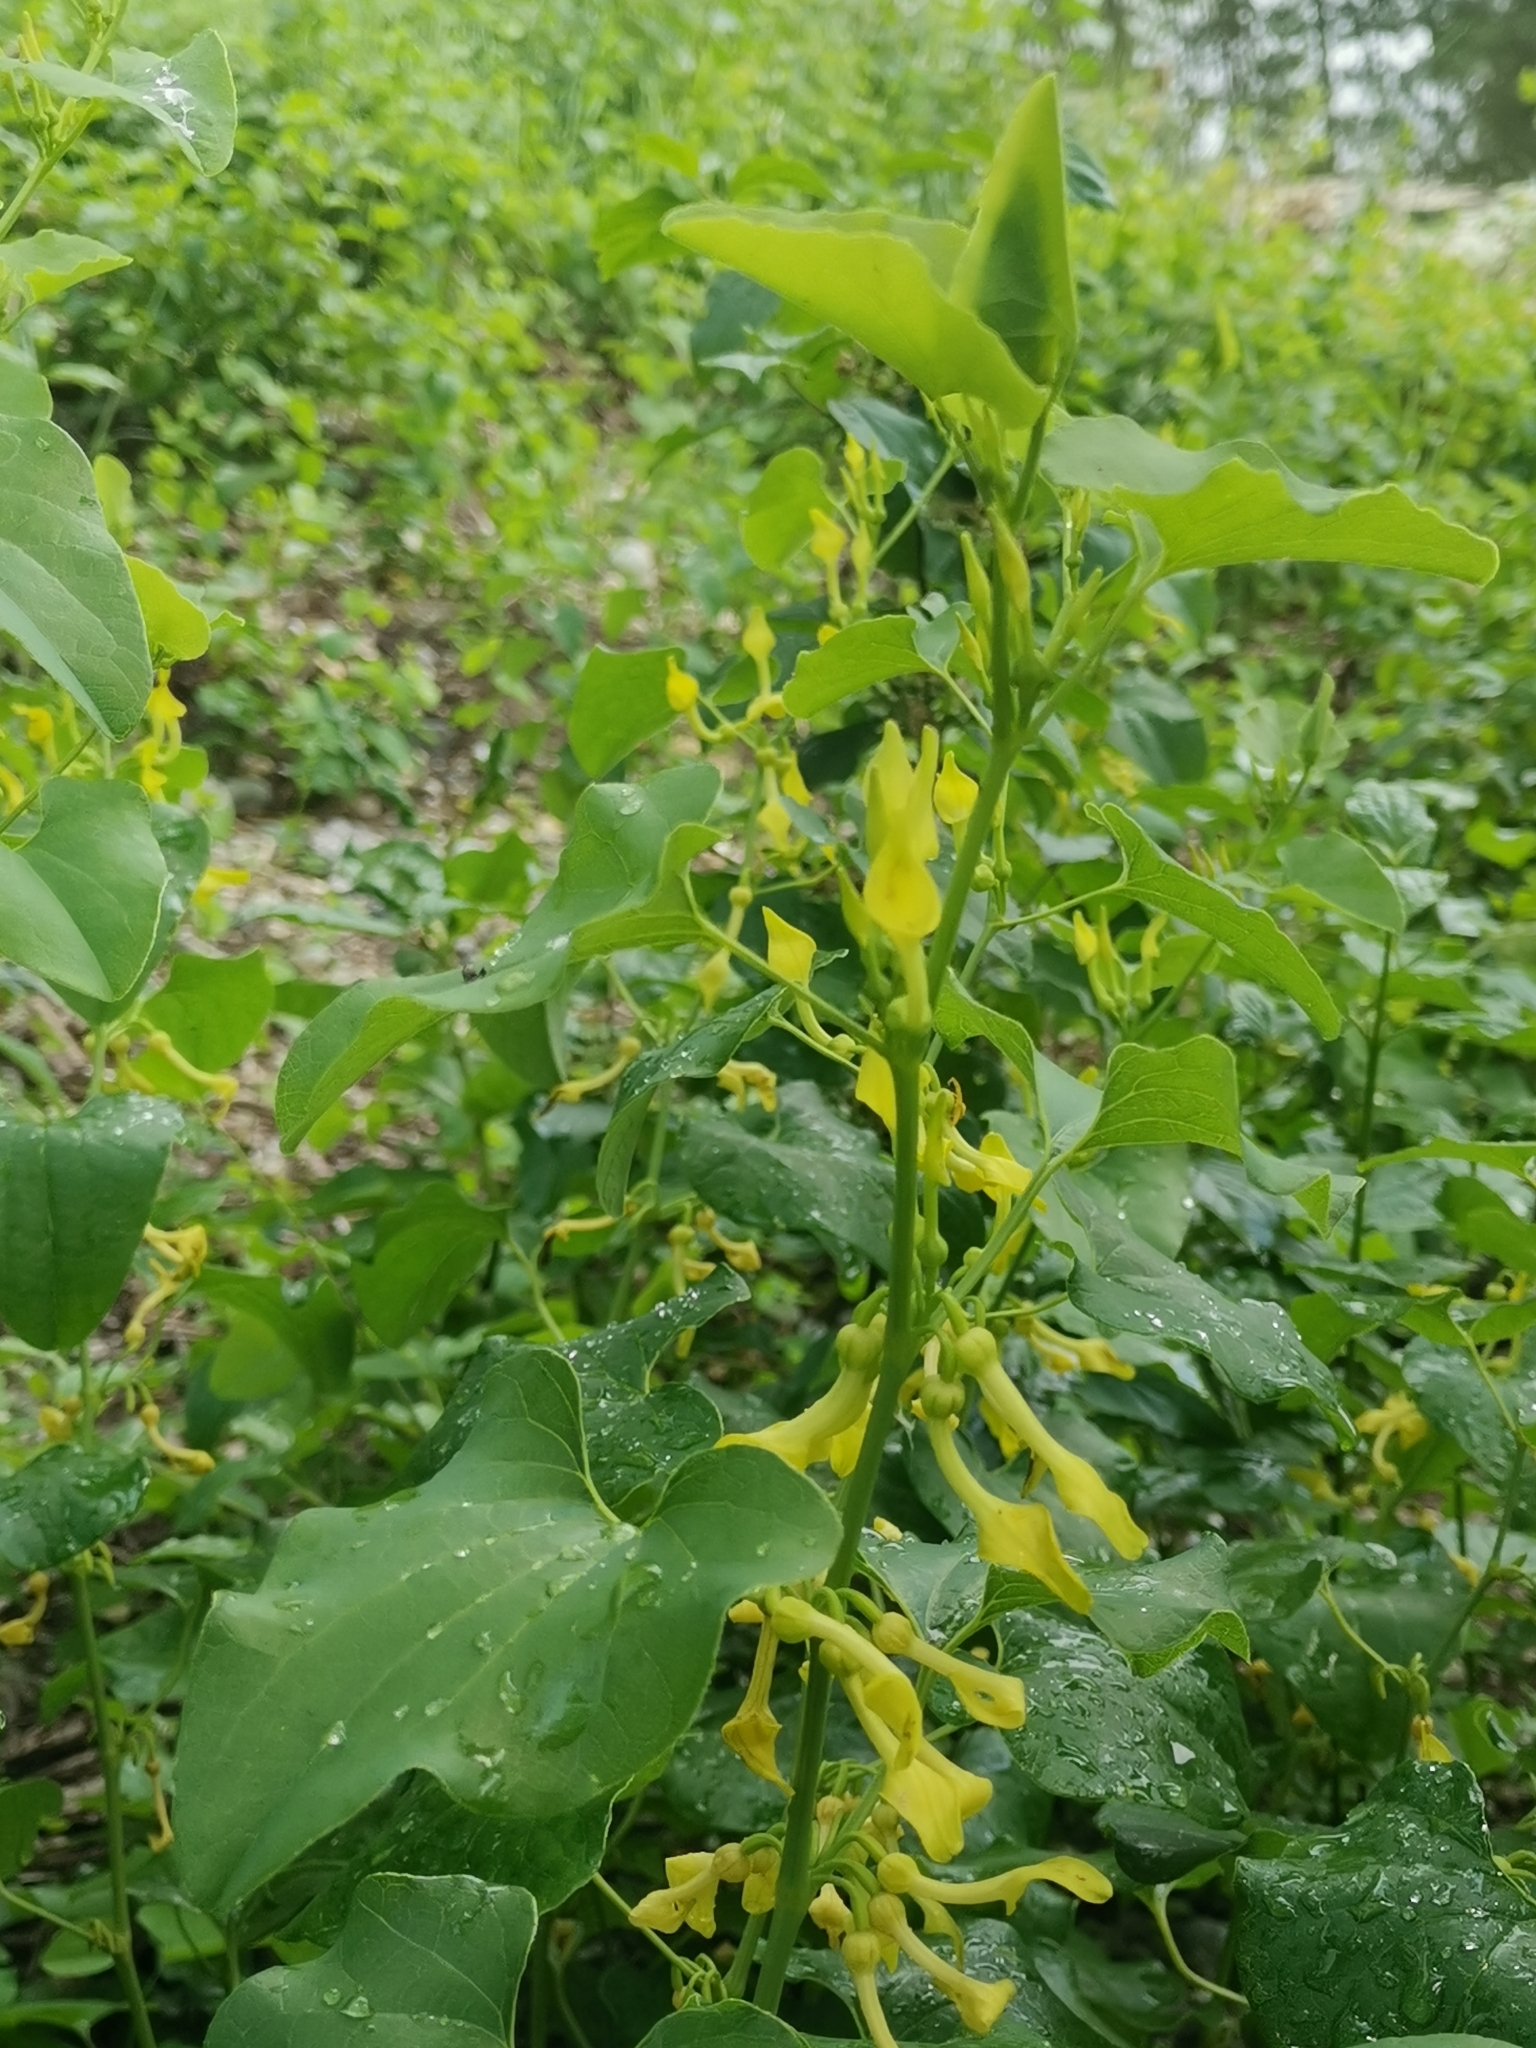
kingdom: Plantae
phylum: Tracheophyta
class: Magnoliopsida
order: Piperales
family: Aristolochiaceae
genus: Aristolochia
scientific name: Aristolochia clematitis
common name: Birthwort
